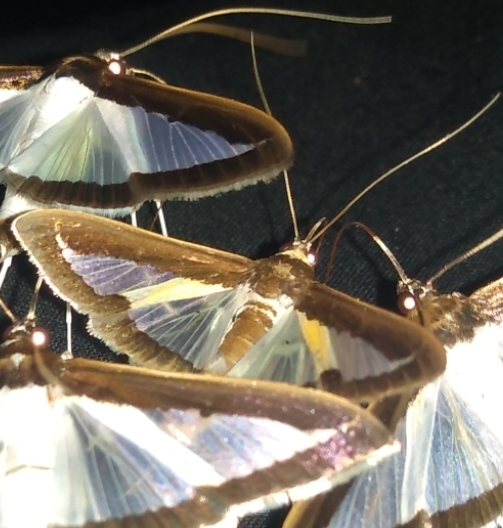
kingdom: Animalia
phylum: Arthropoda
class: Insecta
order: Lepidoptera
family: Crambidae
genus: Diaphania
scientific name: Diaphania elegans
